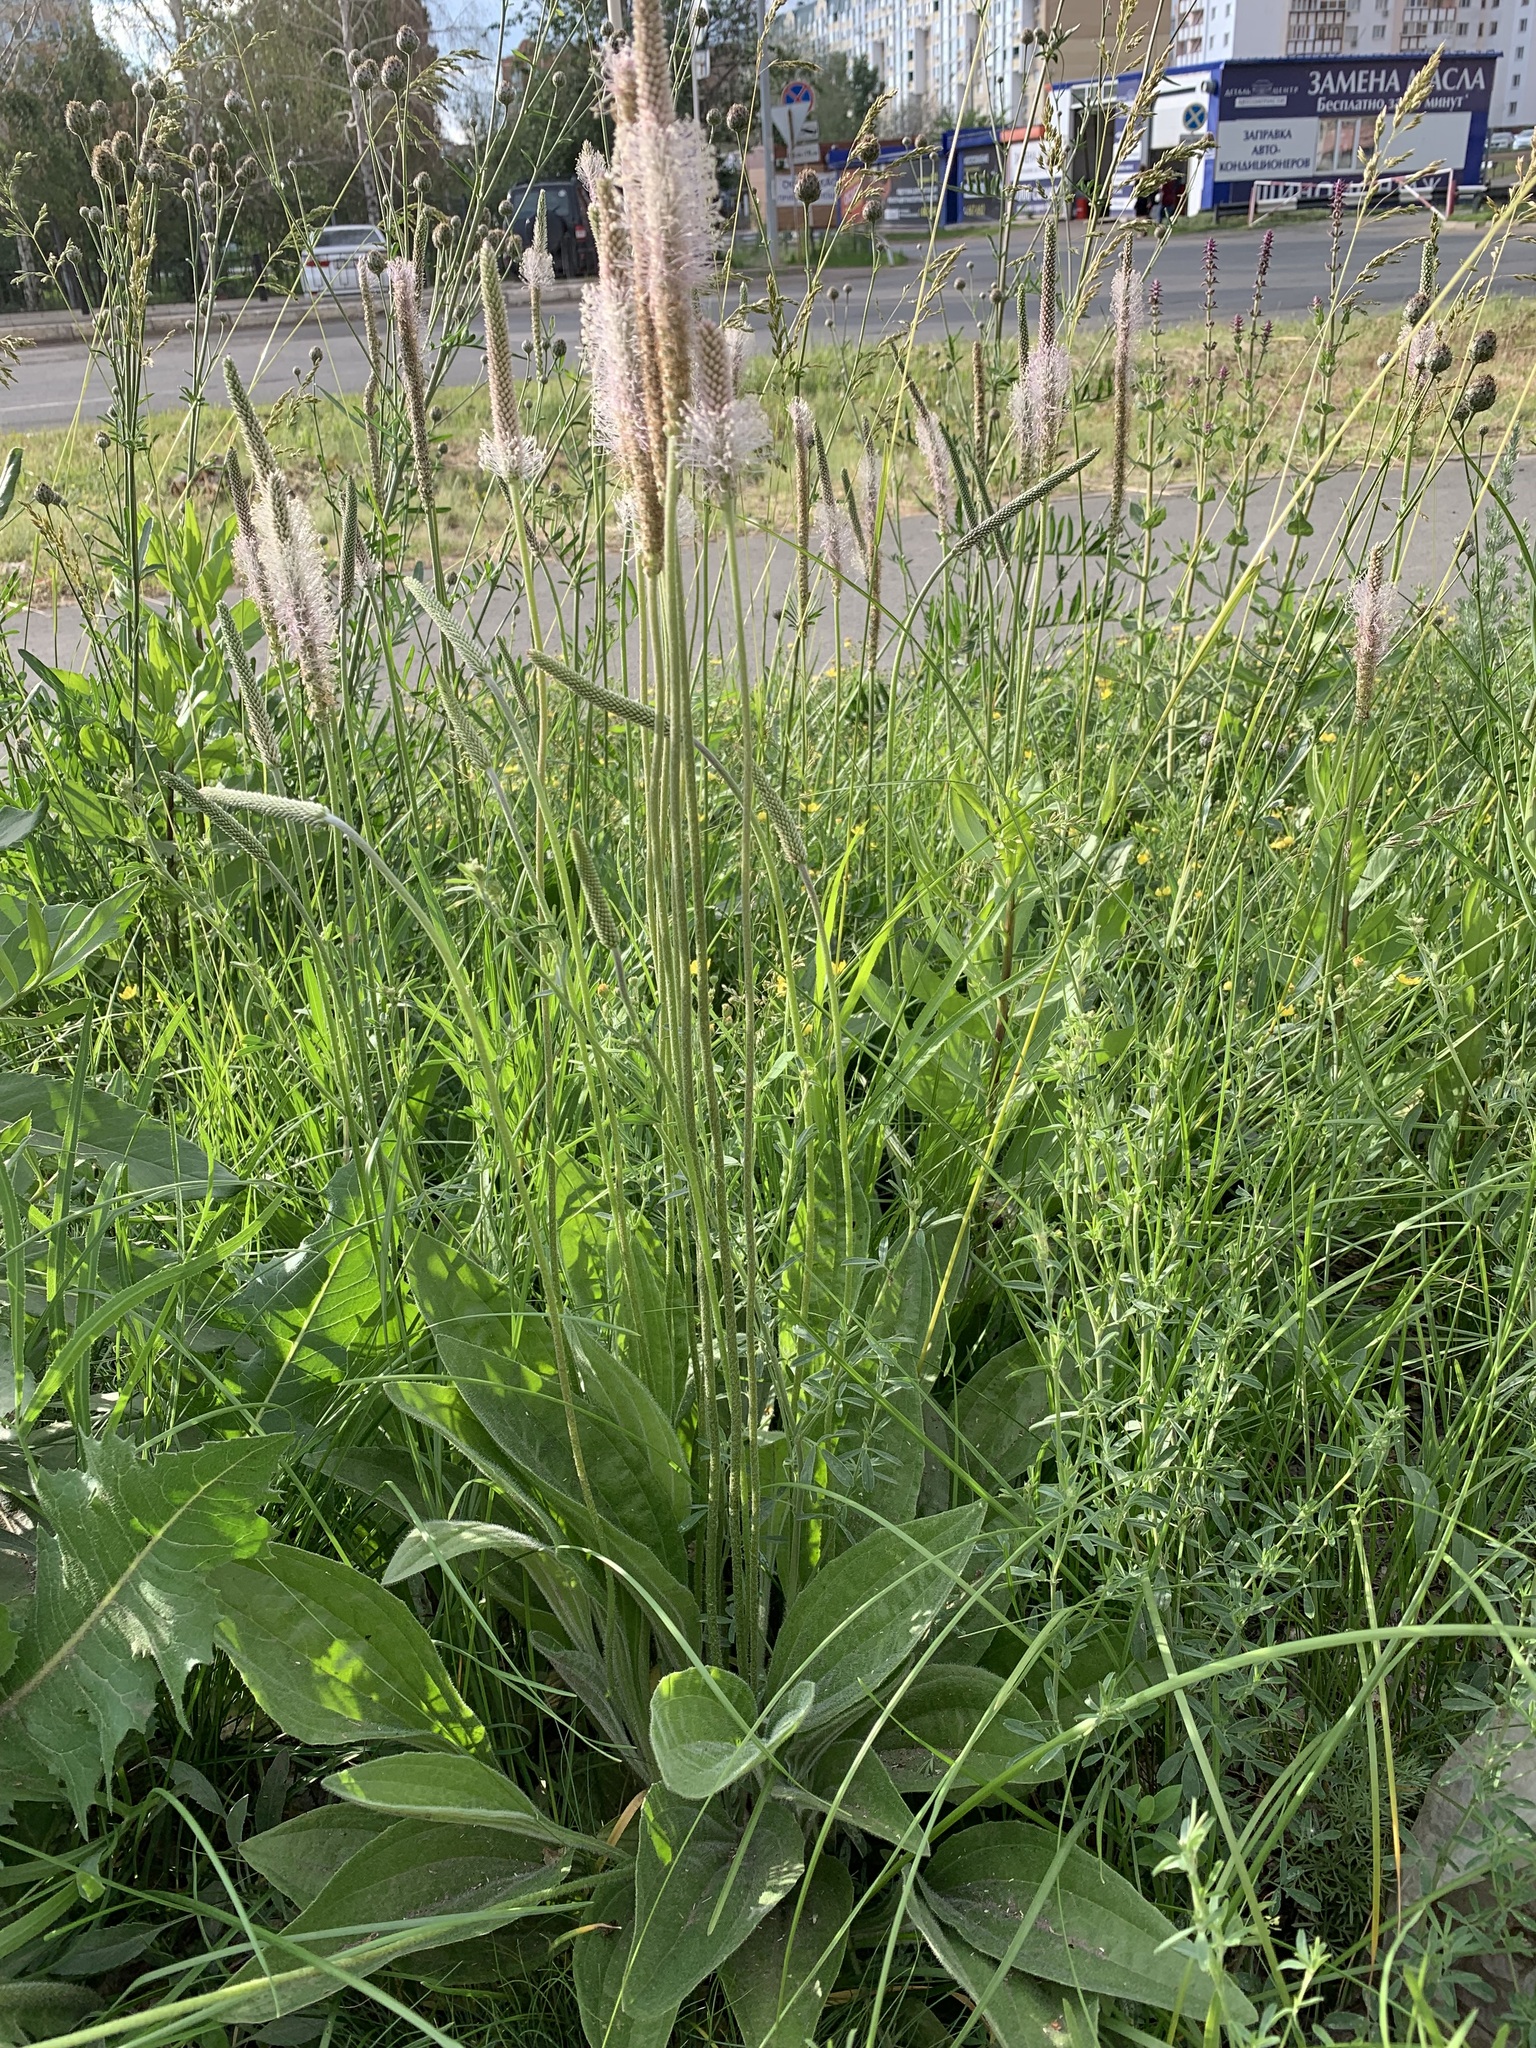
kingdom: Plantae
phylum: Tracheophyta
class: Magnoliopsida
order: Lamiales
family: Plantaginaceae
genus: Plantago
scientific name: Plantago urvillei
